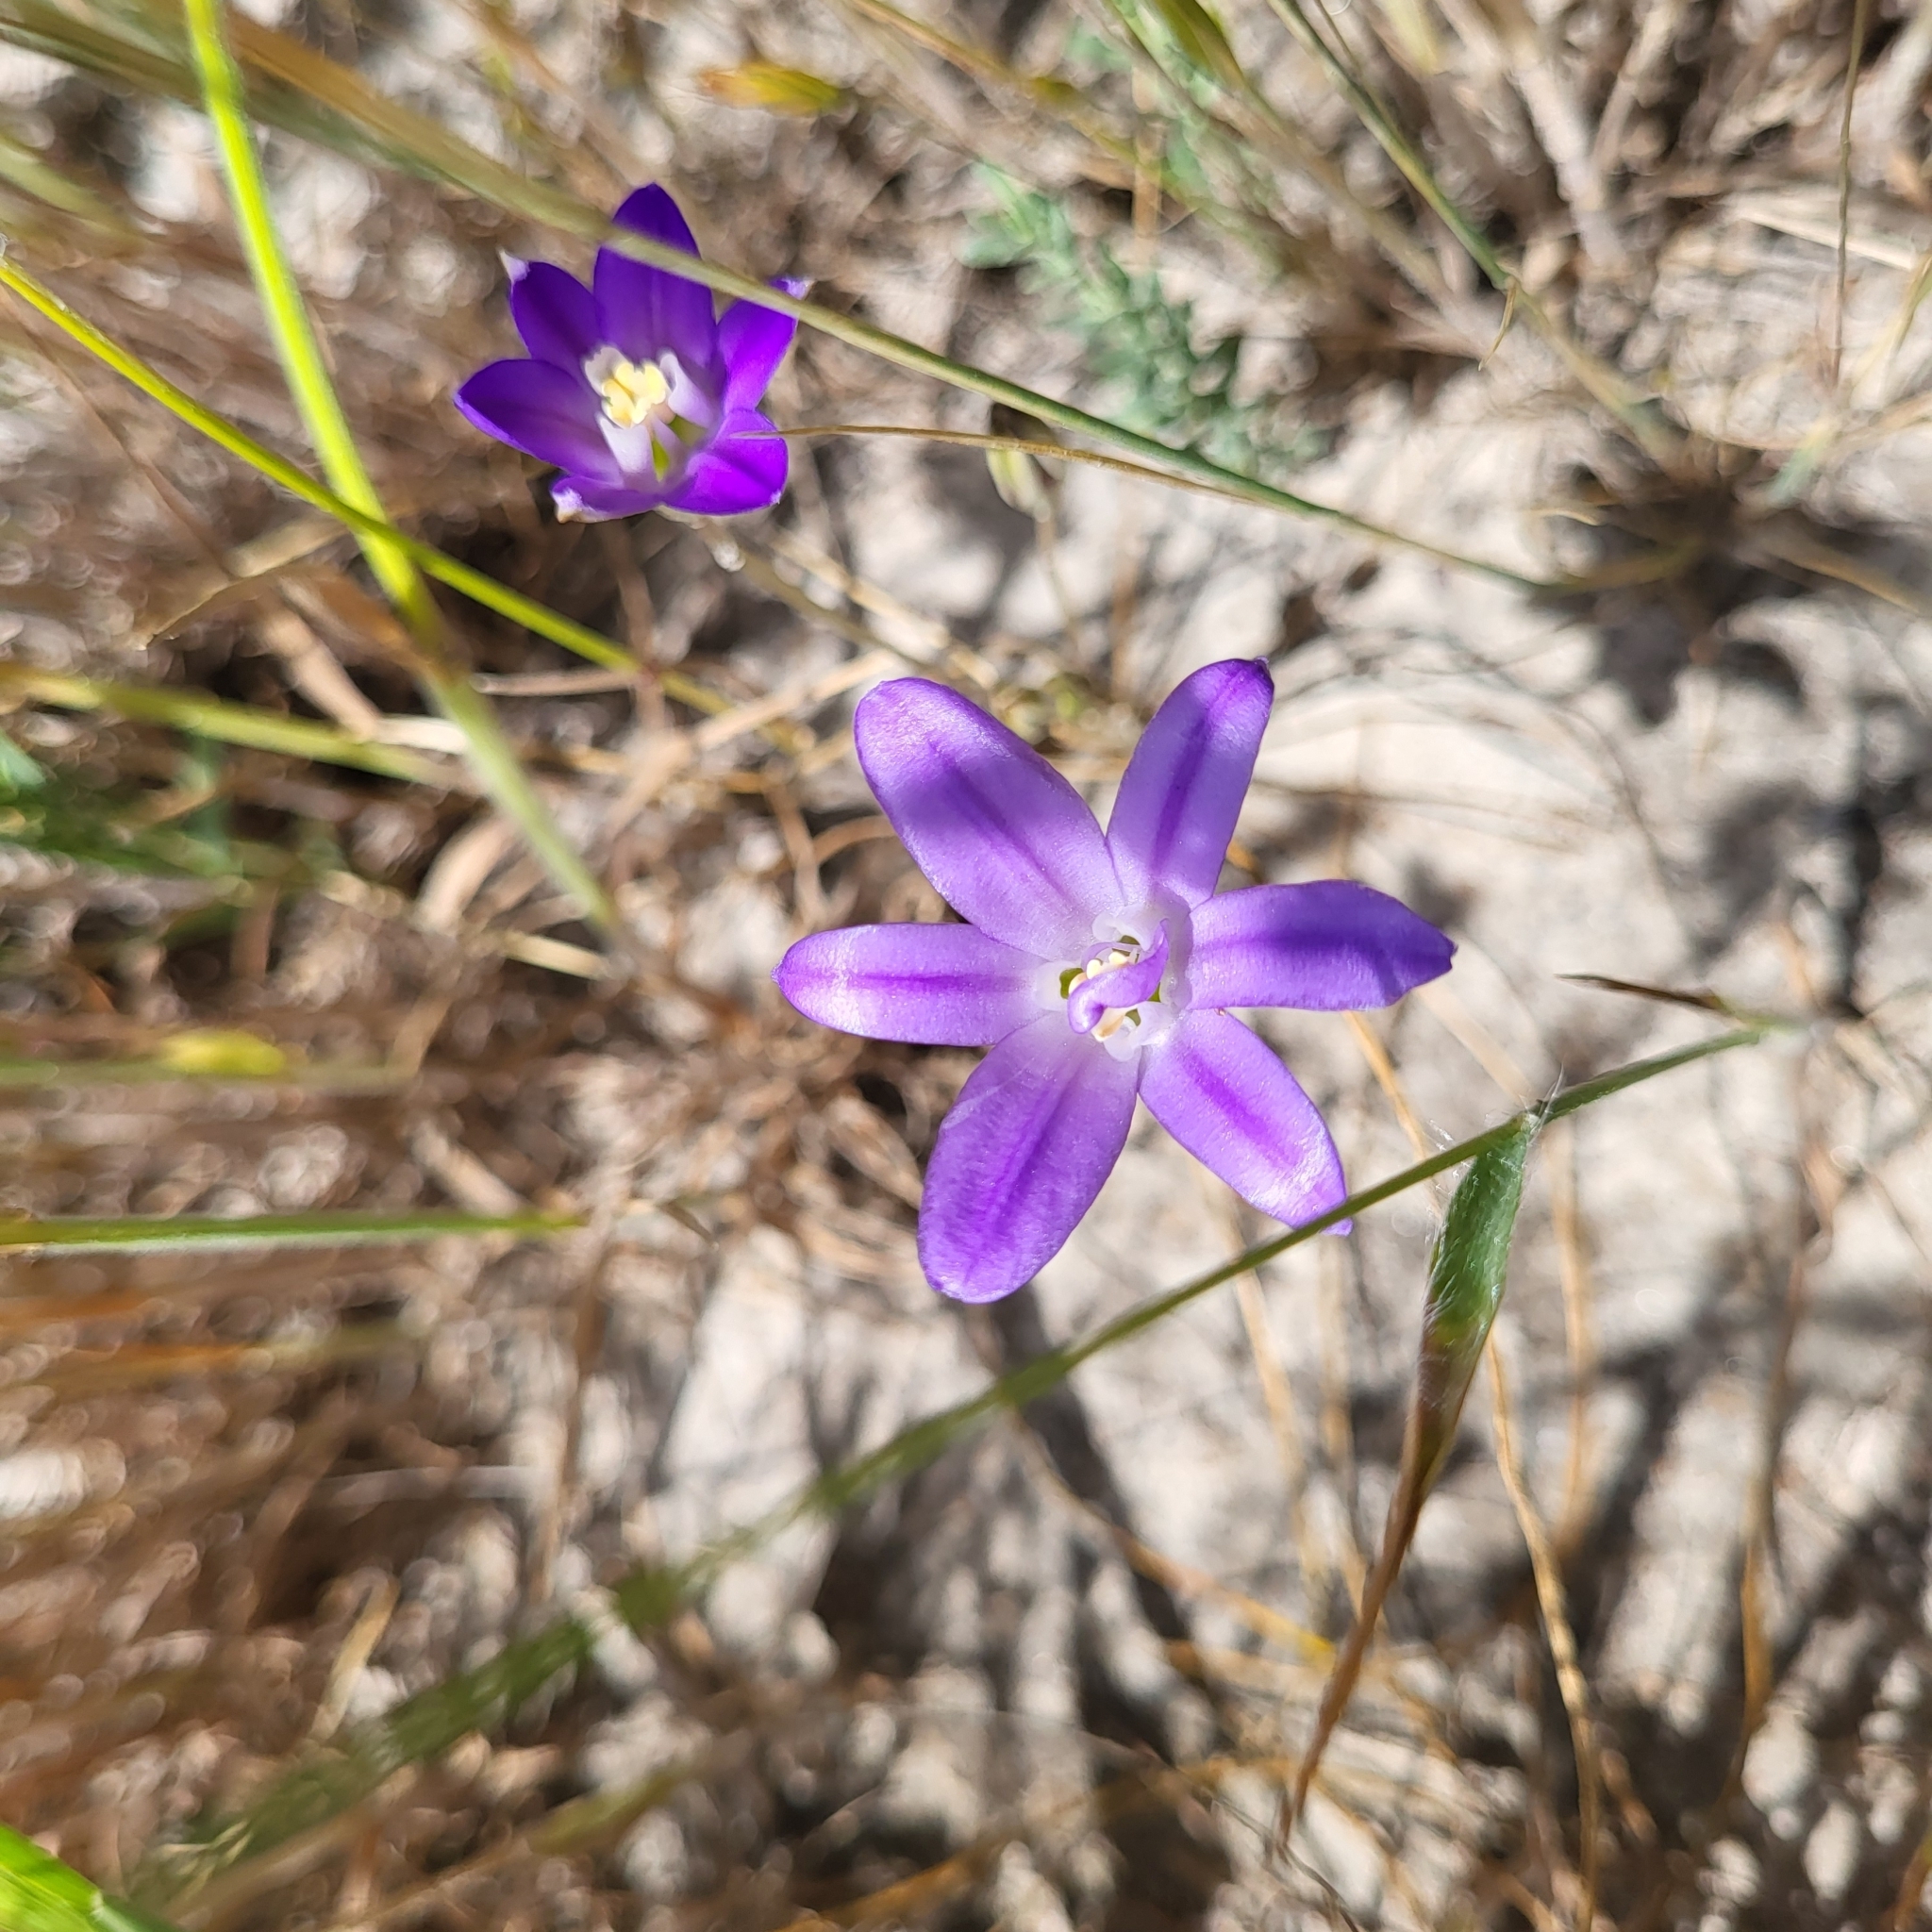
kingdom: Plantae
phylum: Tracheophyta
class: Liliopsida
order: Asparagales
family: Asparagaceae
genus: Brodiaea
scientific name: Brodiaea terrestris
